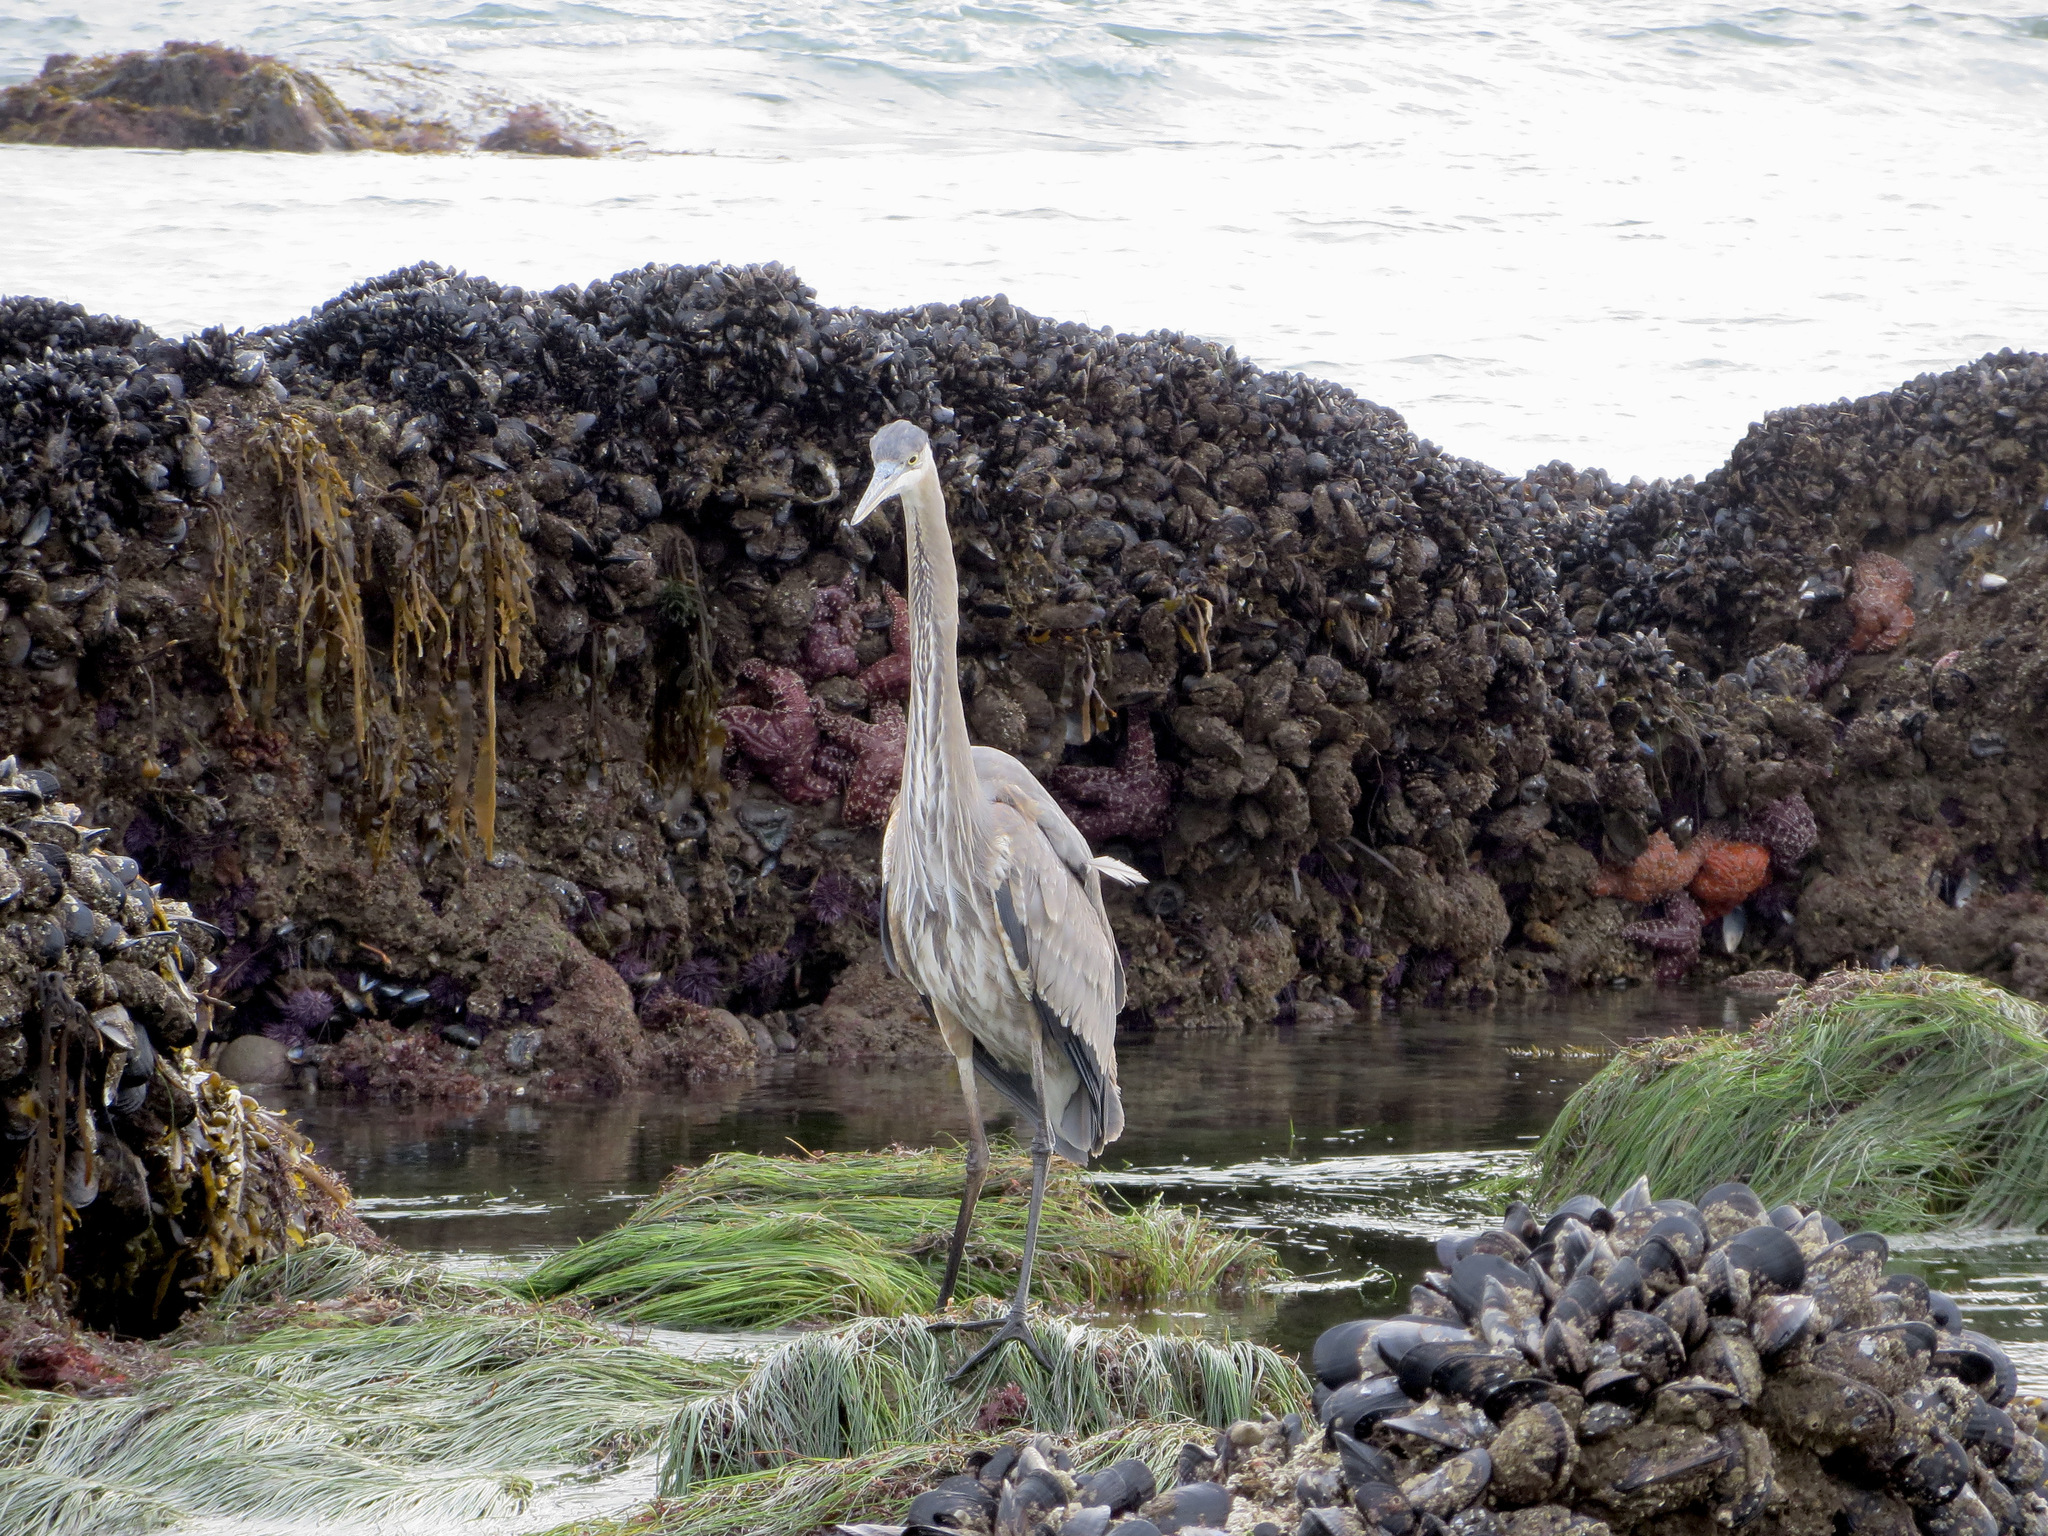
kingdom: Animalia
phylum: Chordata
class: Aves
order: Pelecaniformes
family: Ardeidae
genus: Ardea
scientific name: Ardea herodias
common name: Great blue heron
